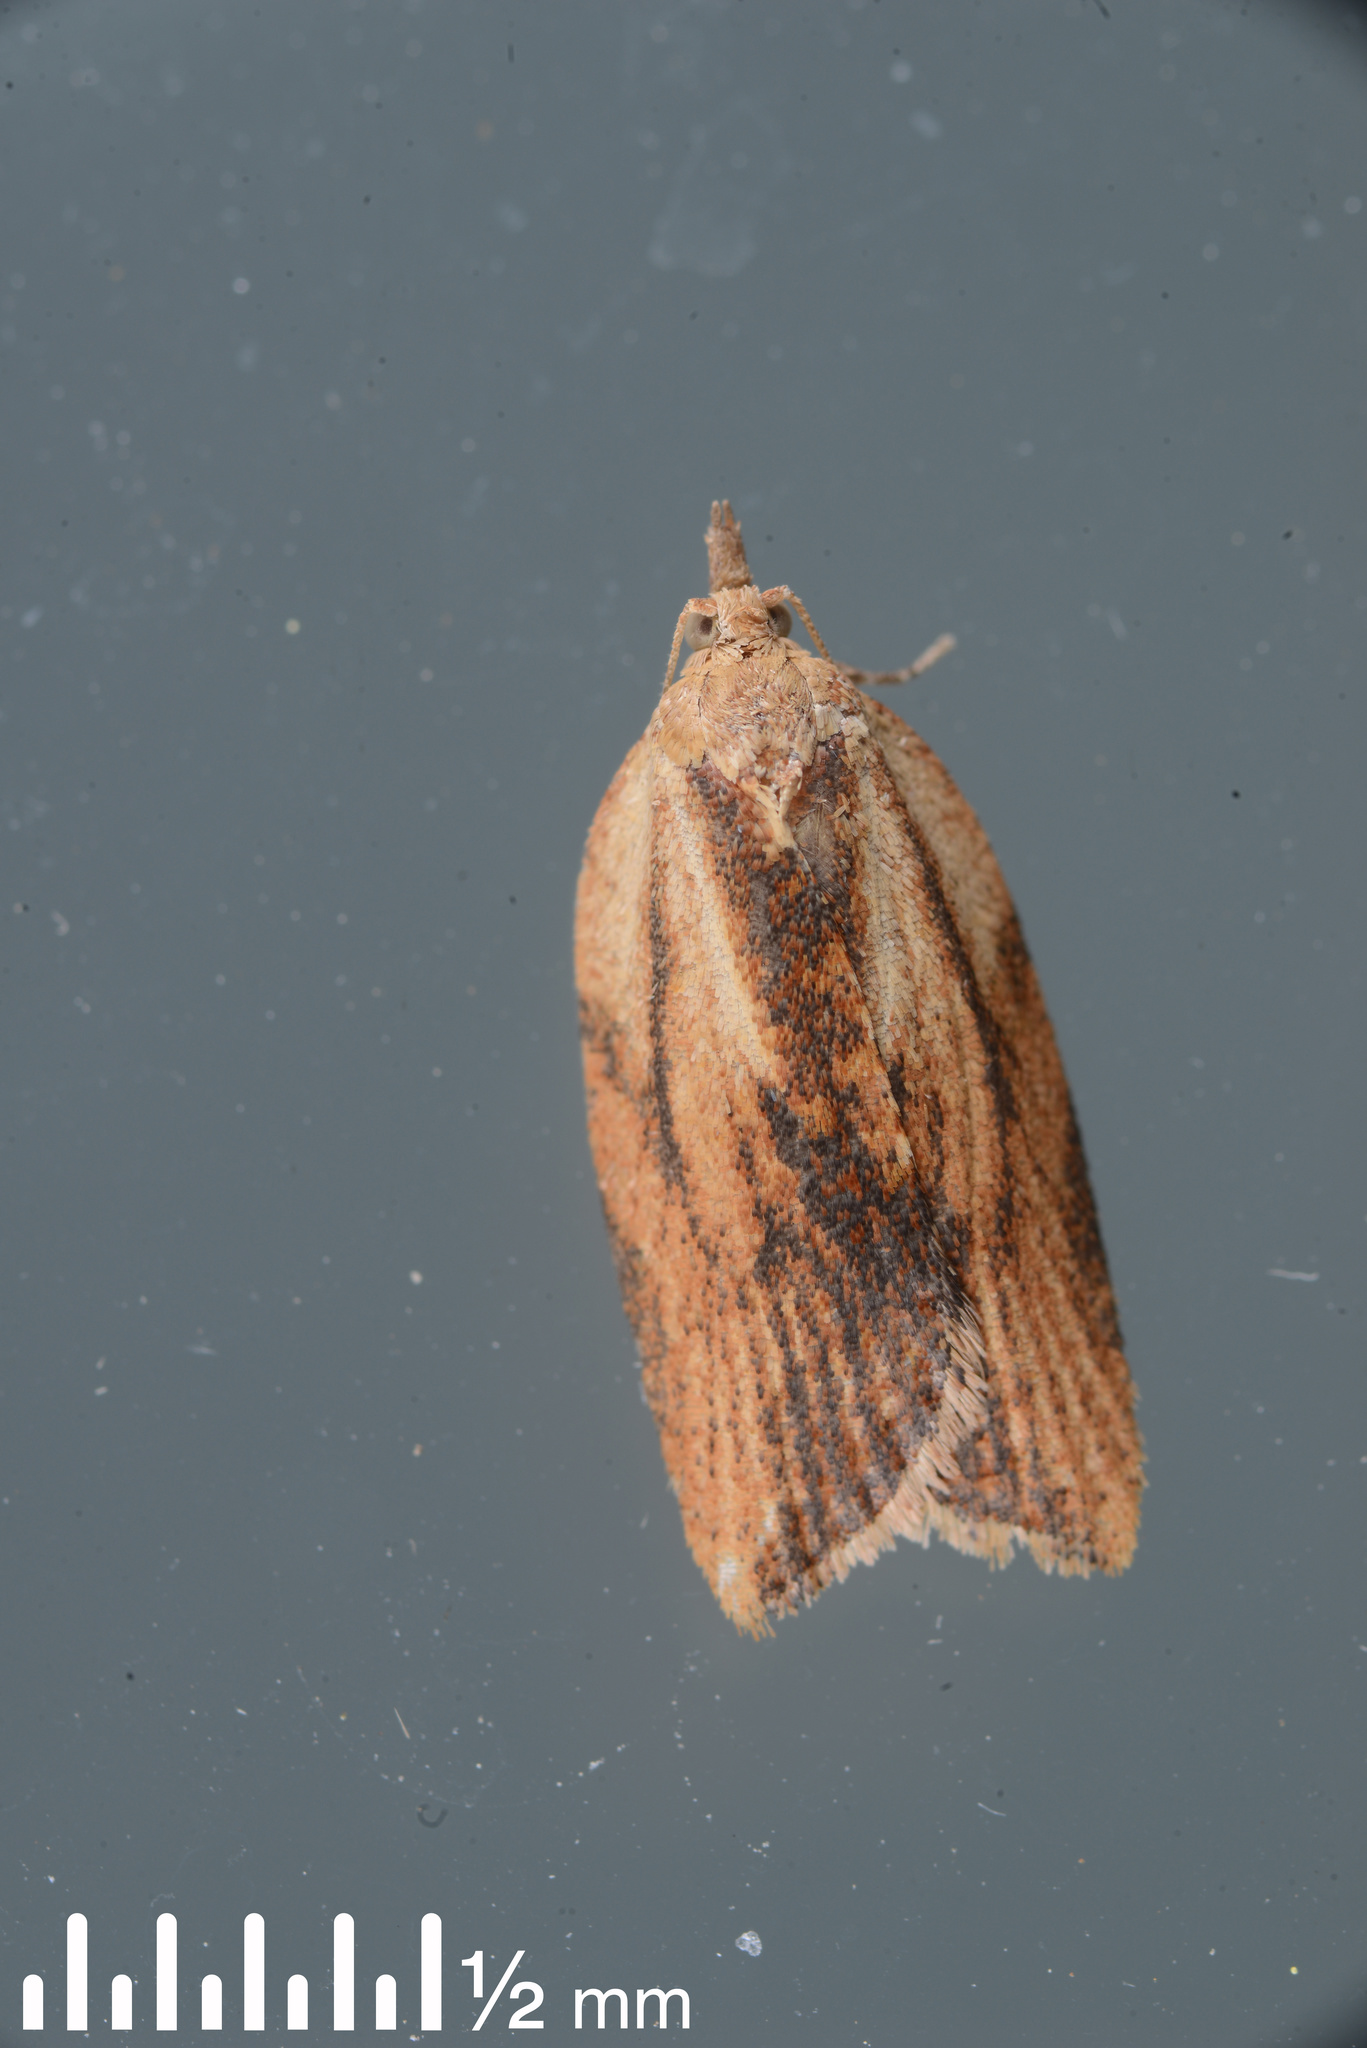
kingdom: Animalia
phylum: Arthropoda
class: Insecta
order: Lepidoptera
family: Tortricidae
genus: Epiphyas
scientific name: Epiphyas postvittana
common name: Light brown apple moth
